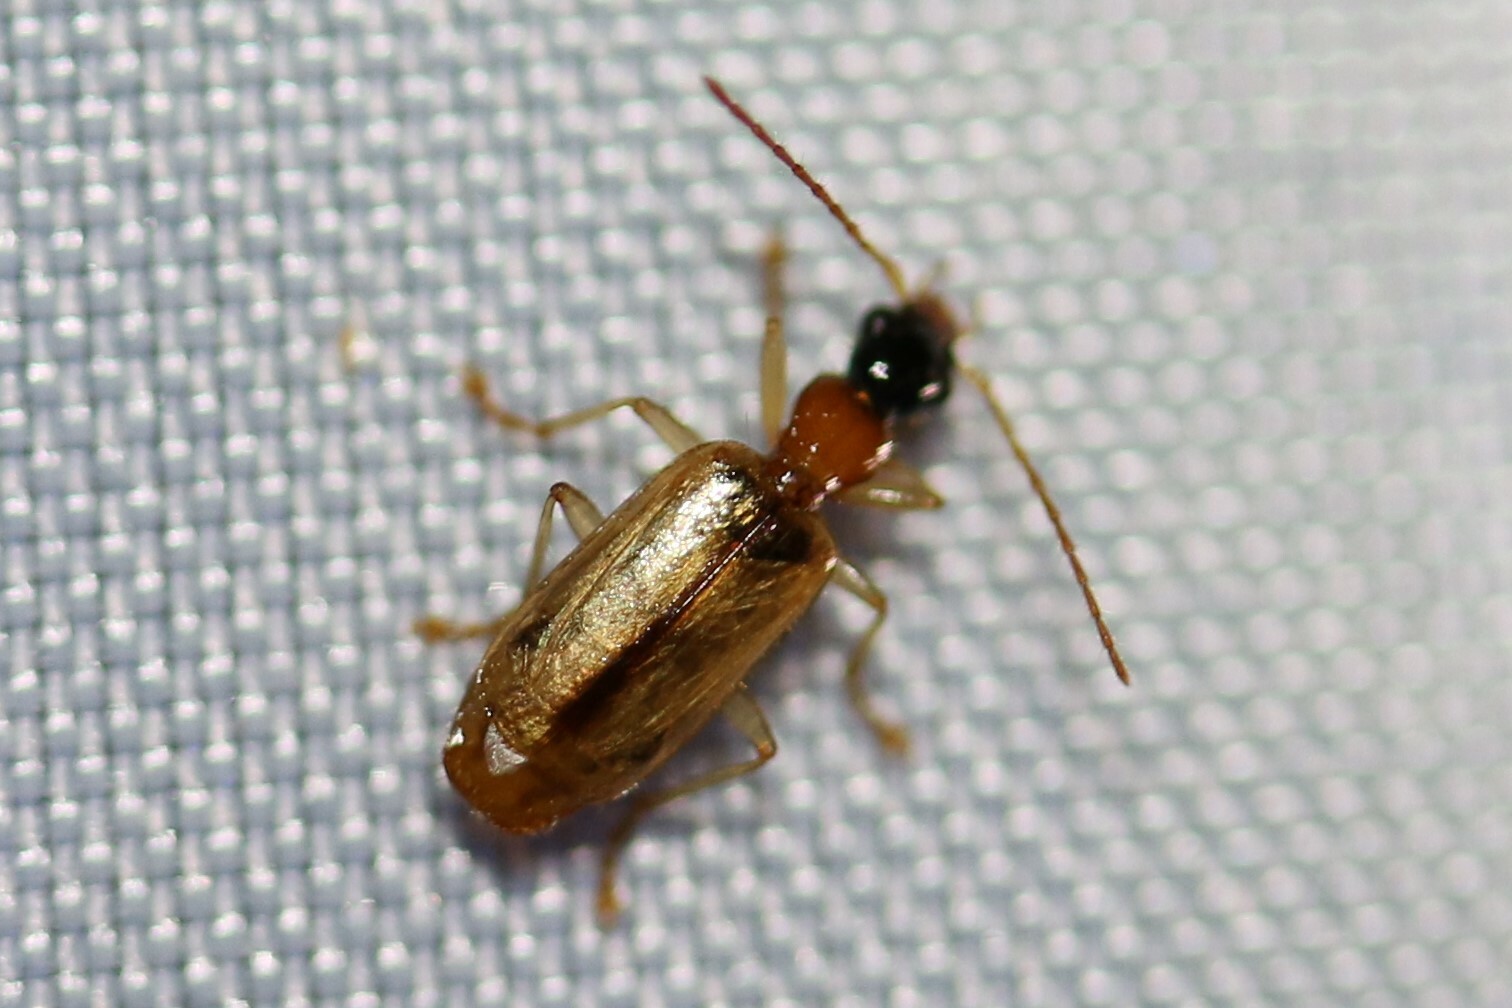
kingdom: Animalia
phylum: Arthropoda
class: Insecta
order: Coleoptera
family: Carabidae
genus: Demetrias
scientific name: Demetrias atricapillus
